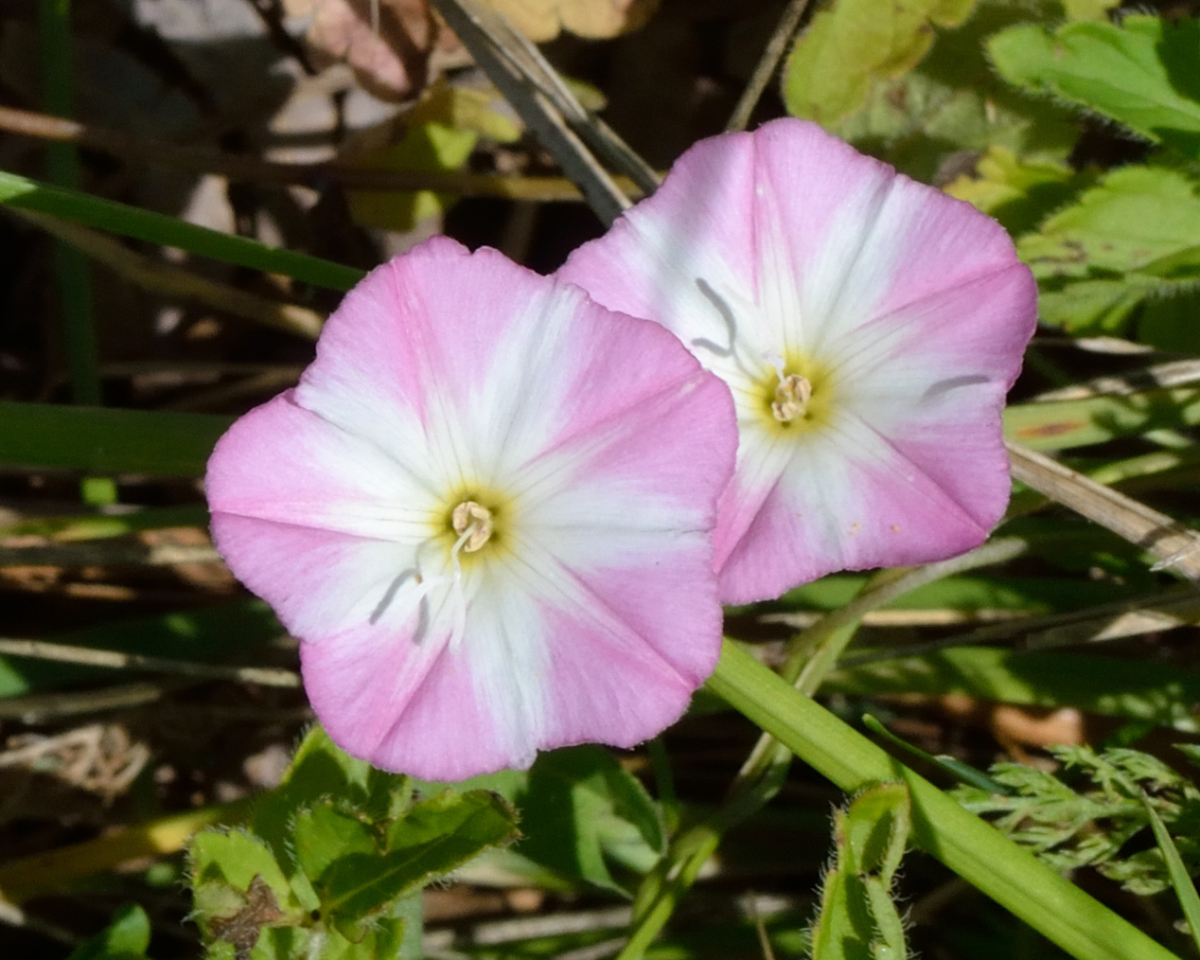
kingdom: Plantae
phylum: Tracheophyta
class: Magnoliopsida
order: Solanales
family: Convolvulaceae
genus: Convolvulus
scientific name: Convolvulus arvensis
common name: Field bindweed
